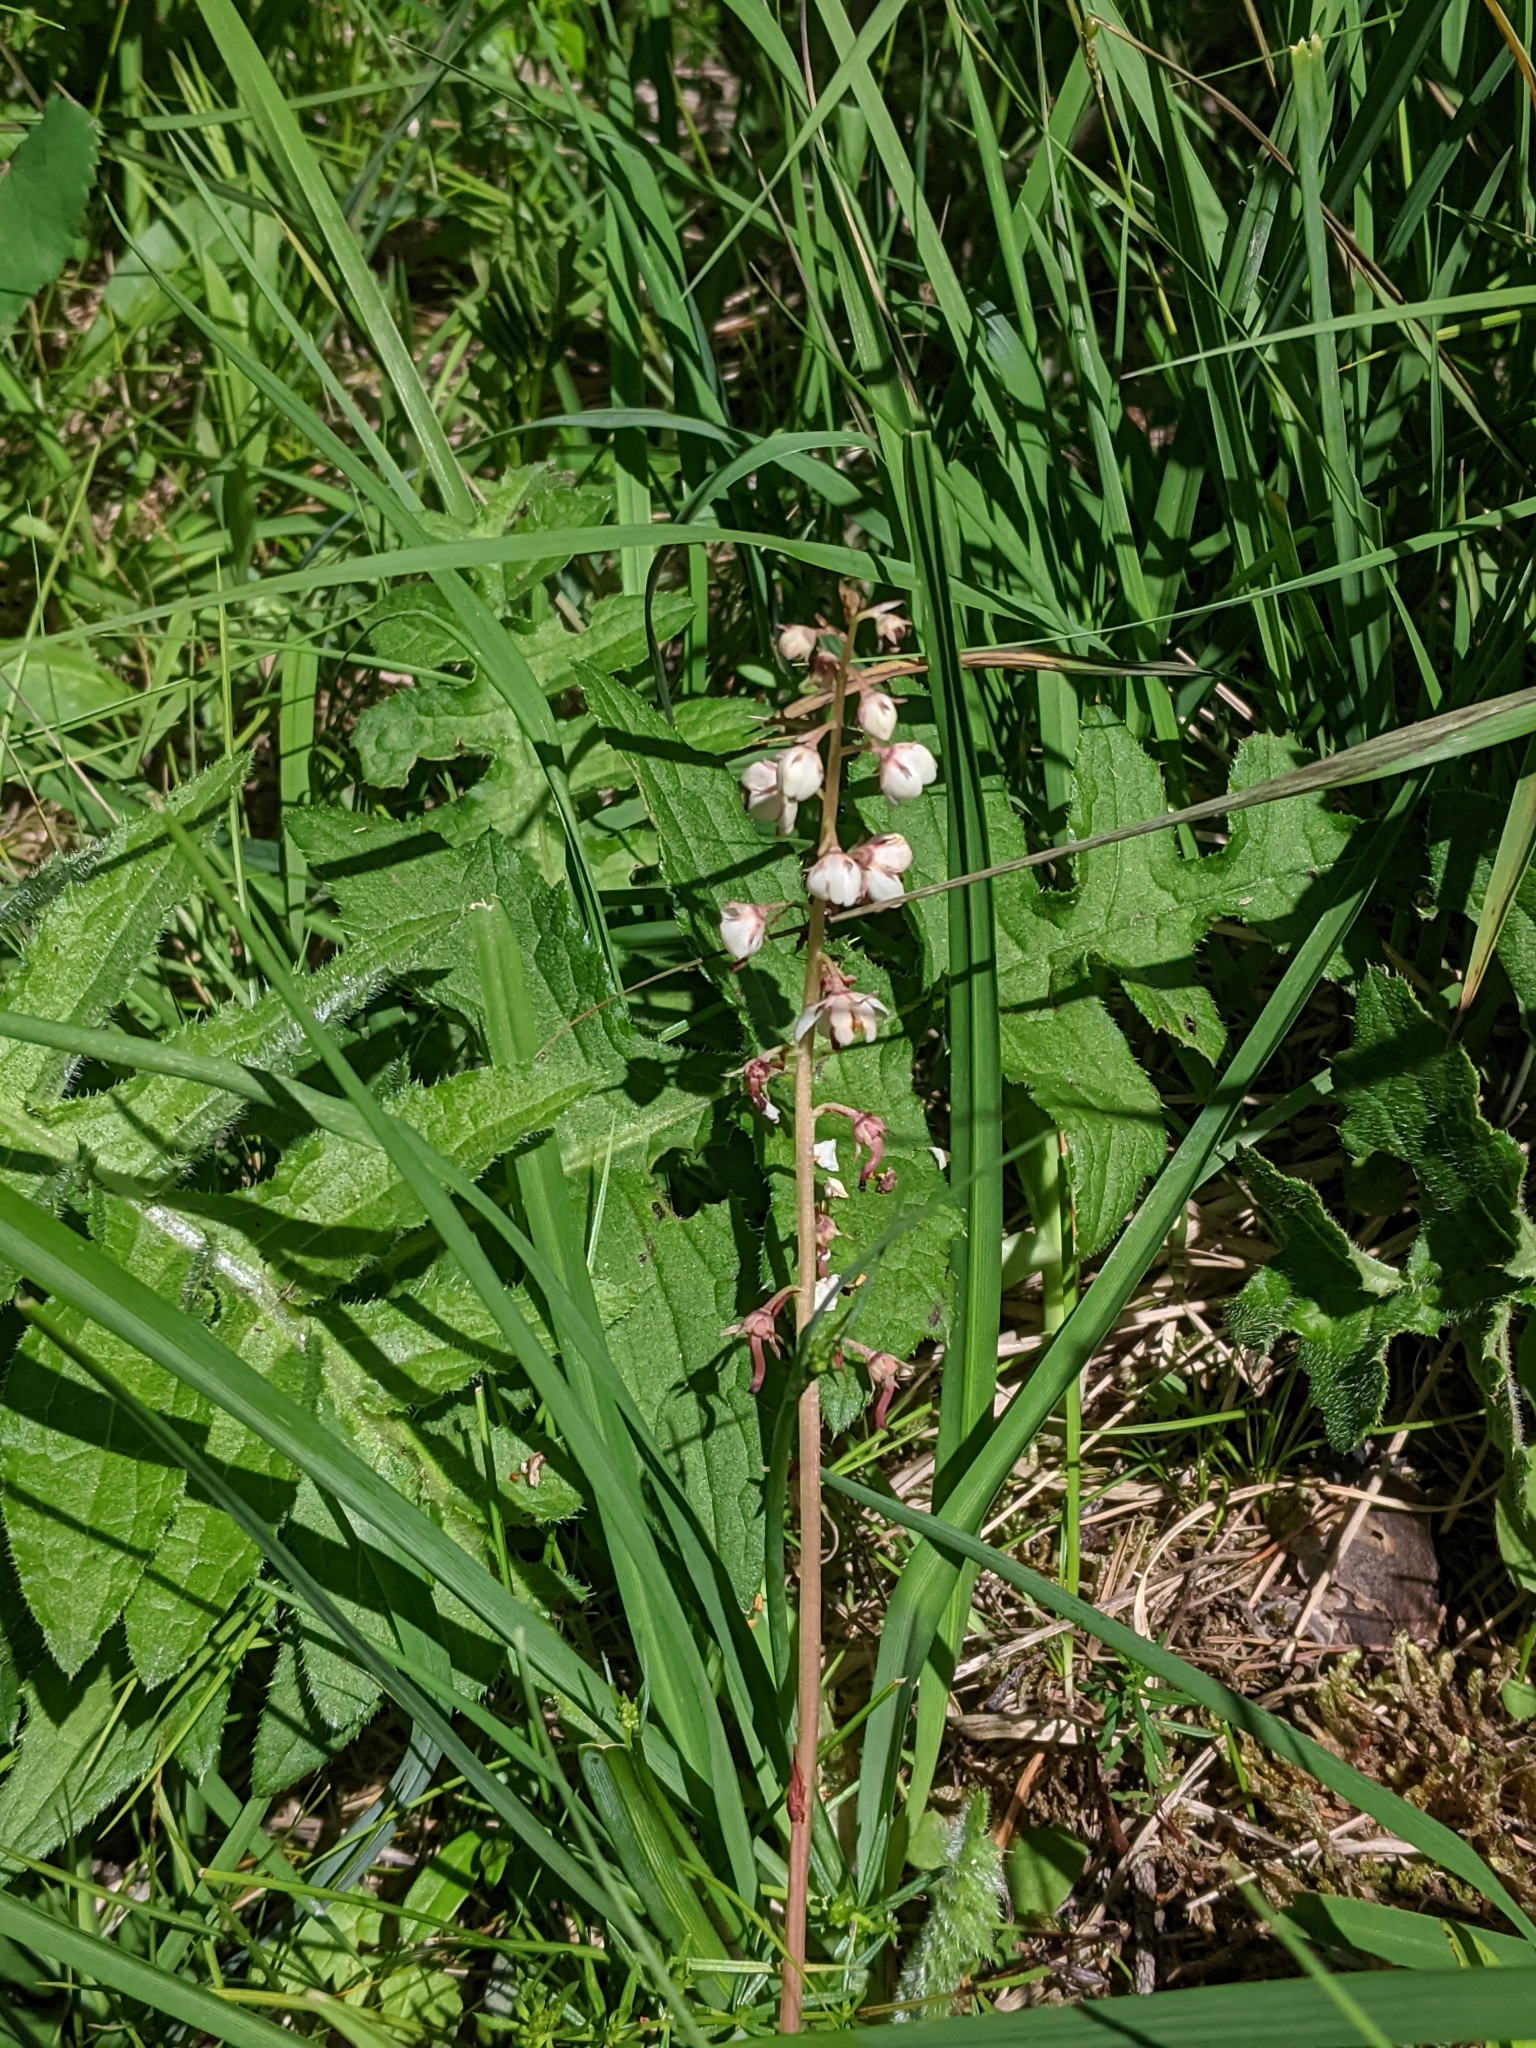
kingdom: Plantae
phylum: Tracheophyta
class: Magnoliopsida
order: Ericales
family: Ericaceae
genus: Pyrola
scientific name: Pyrola minor
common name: Common wintergreen
